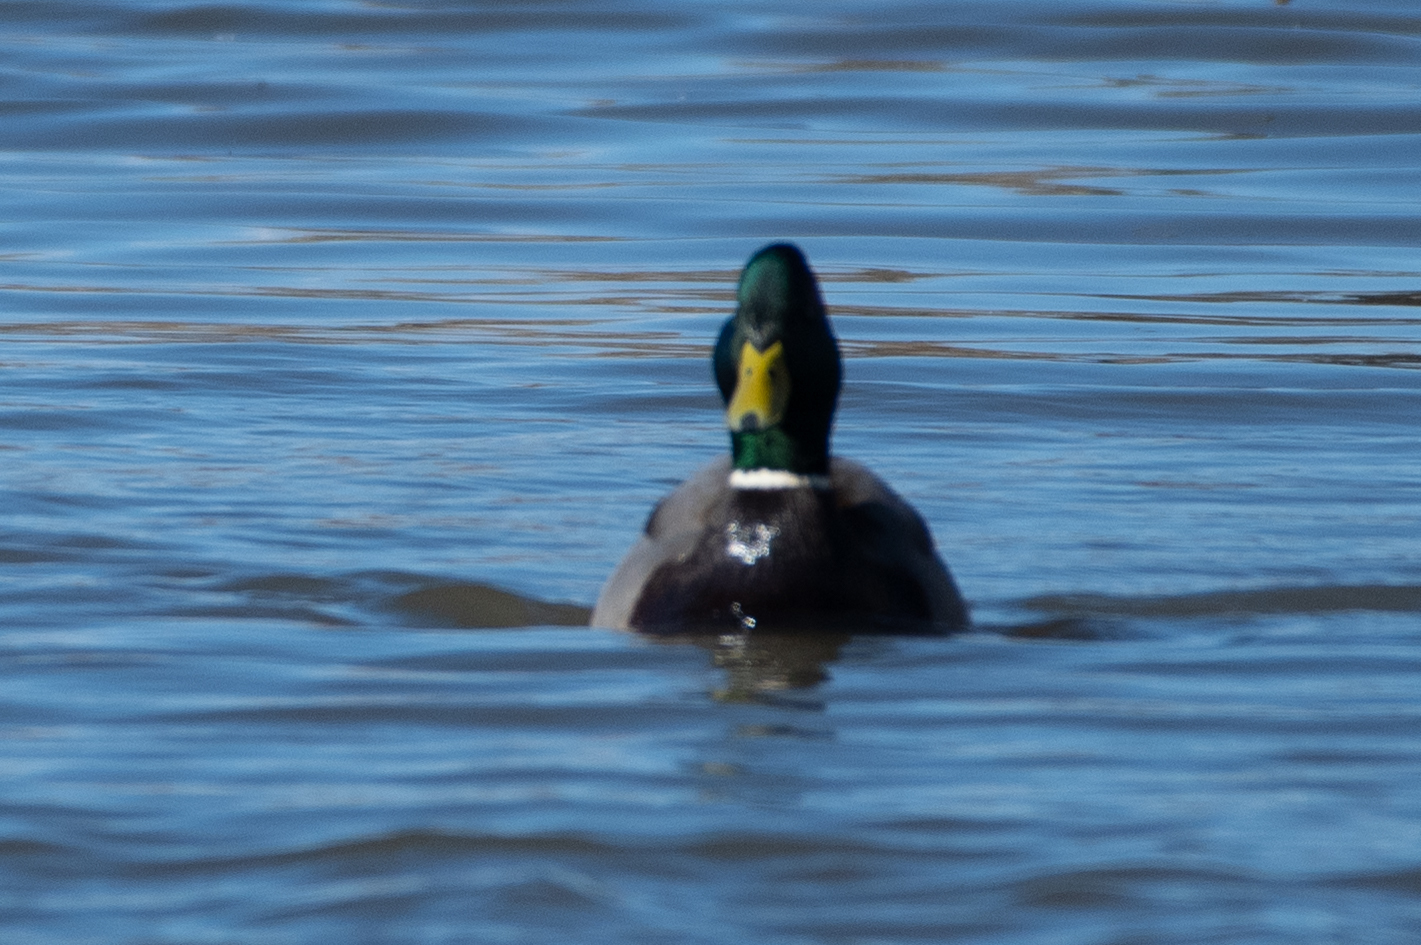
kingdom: Animalia
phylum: Chordata
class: Aves
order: Anseriformes
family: Anatidae
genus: Anas
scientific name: Anas platyrhynchos
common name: Mallard
